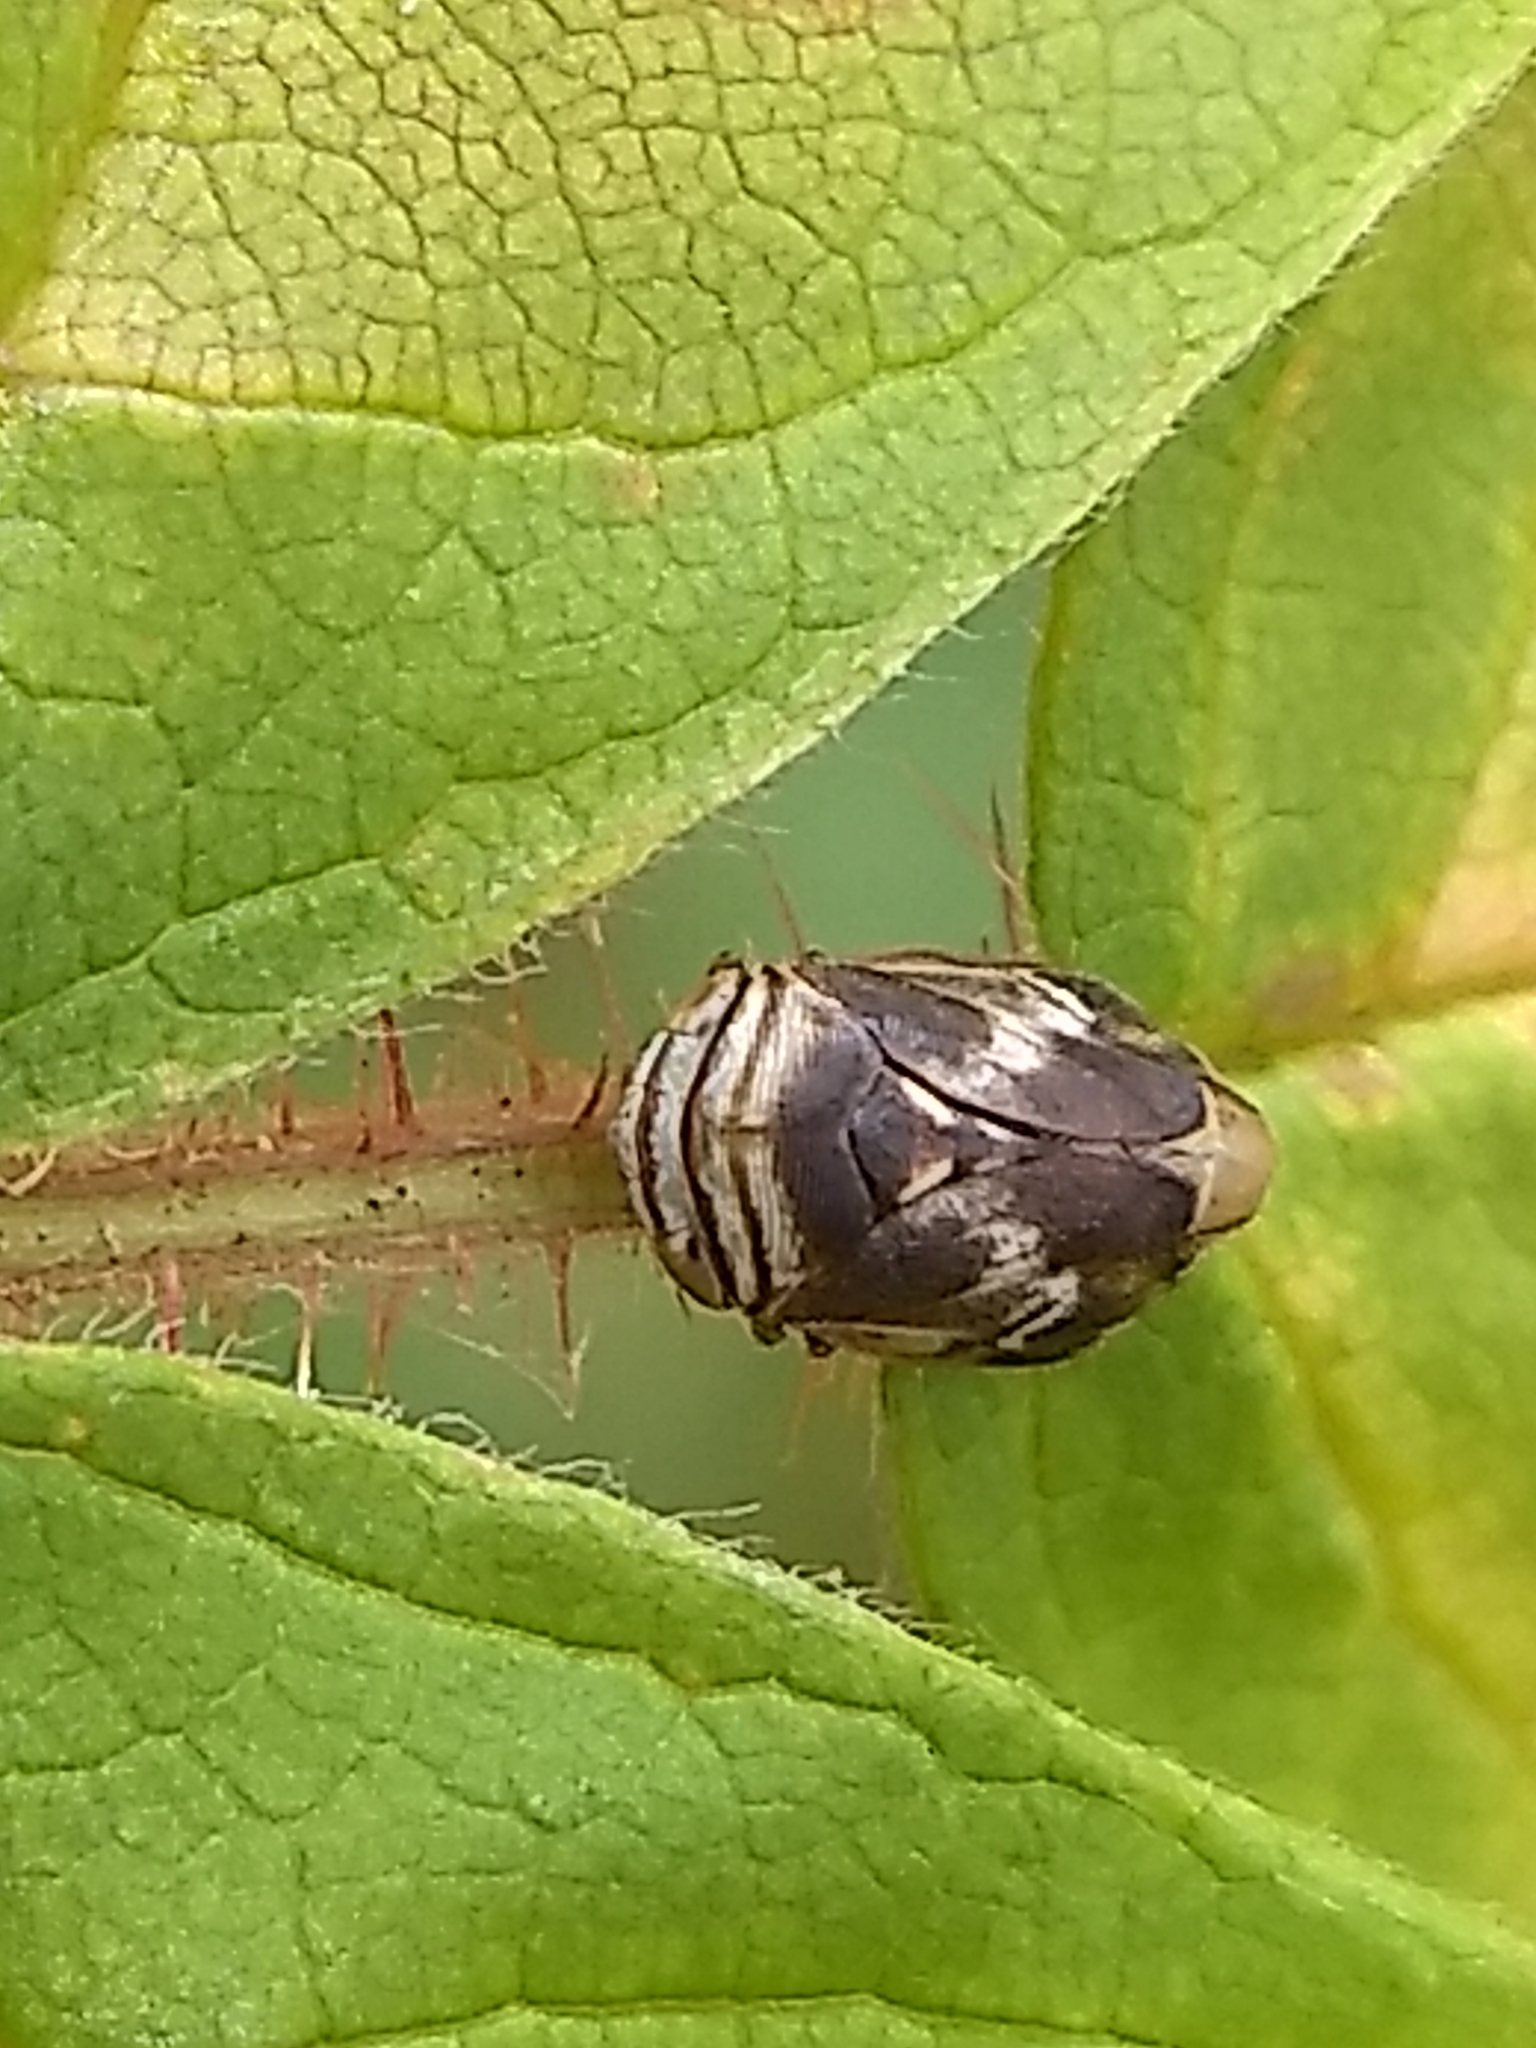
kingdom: Animalia
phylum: Arthropoda
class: Insecta
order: Hemiptera
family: Clastopteridae
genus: Clastoptera
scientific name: Clastoptera obtusa
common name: Alder spittlebug
